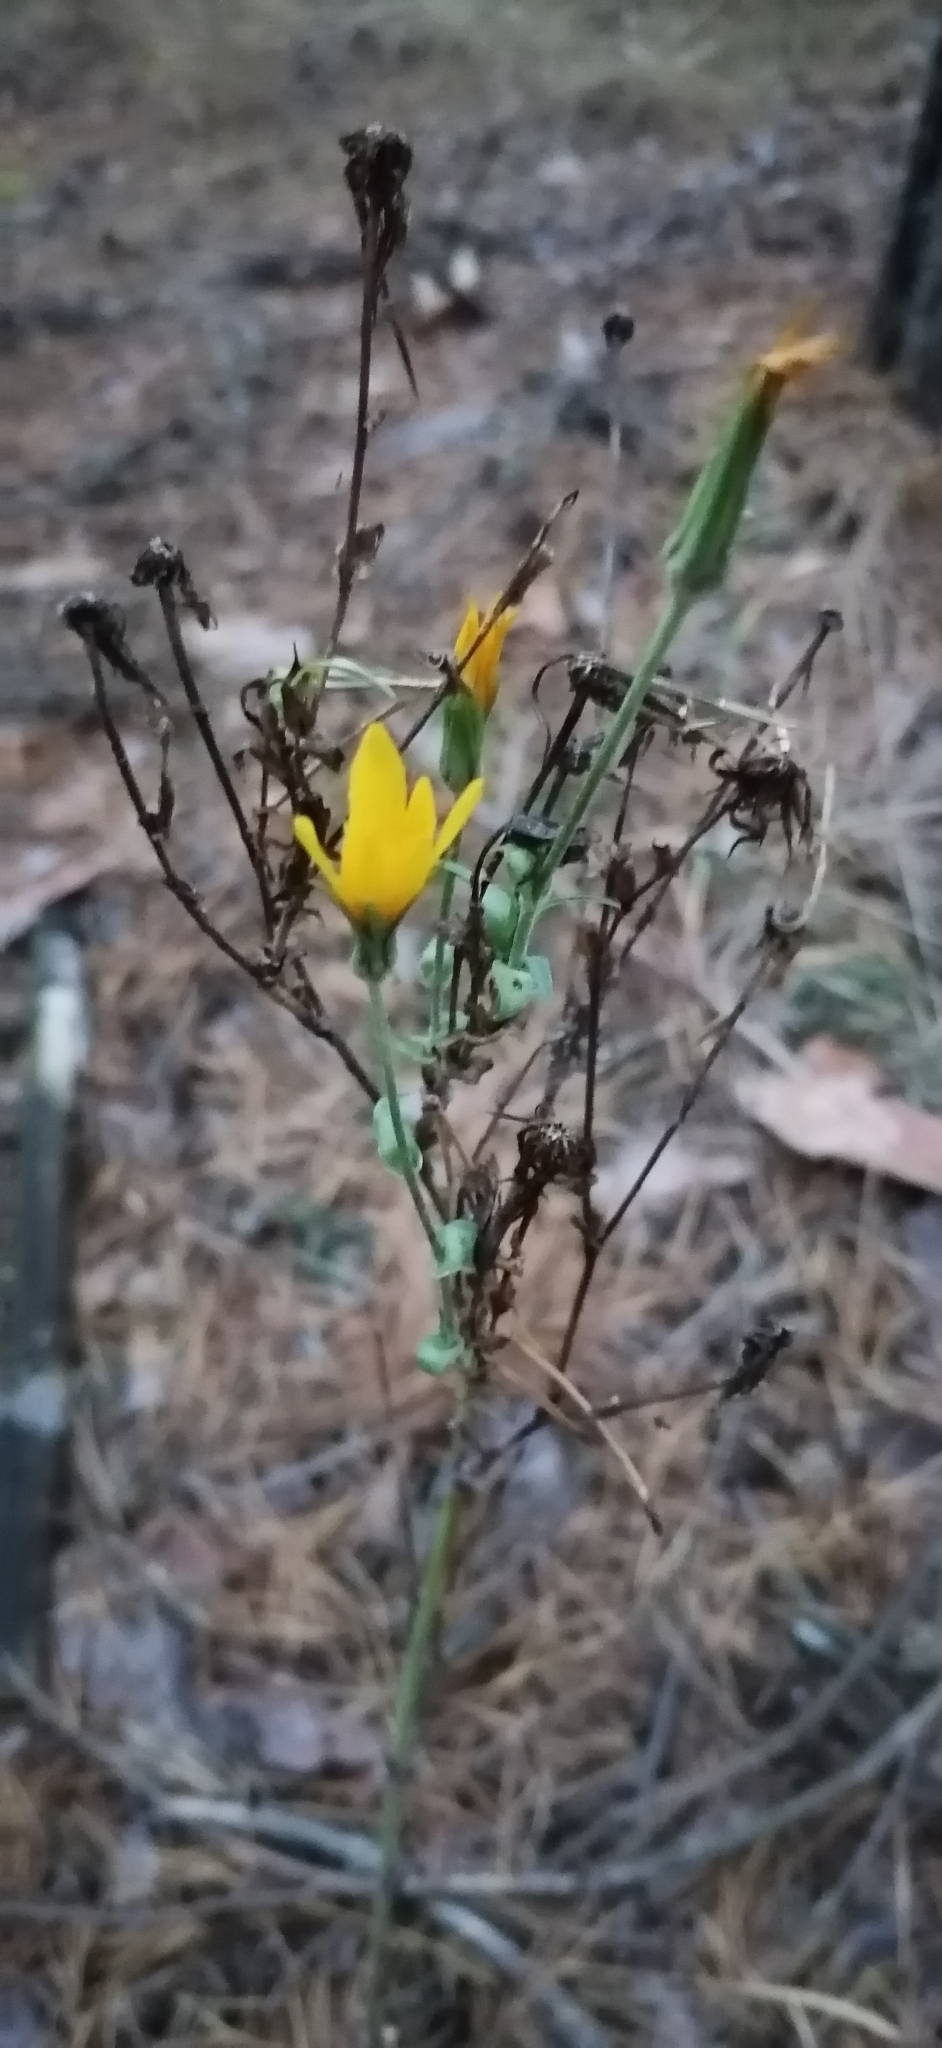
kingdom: Plantae
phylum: Tracheophyta
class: Magnoliopsida
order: Asterales
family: Asteraceae
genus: Tragopogon
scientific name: Tragopogon ucrainicus
